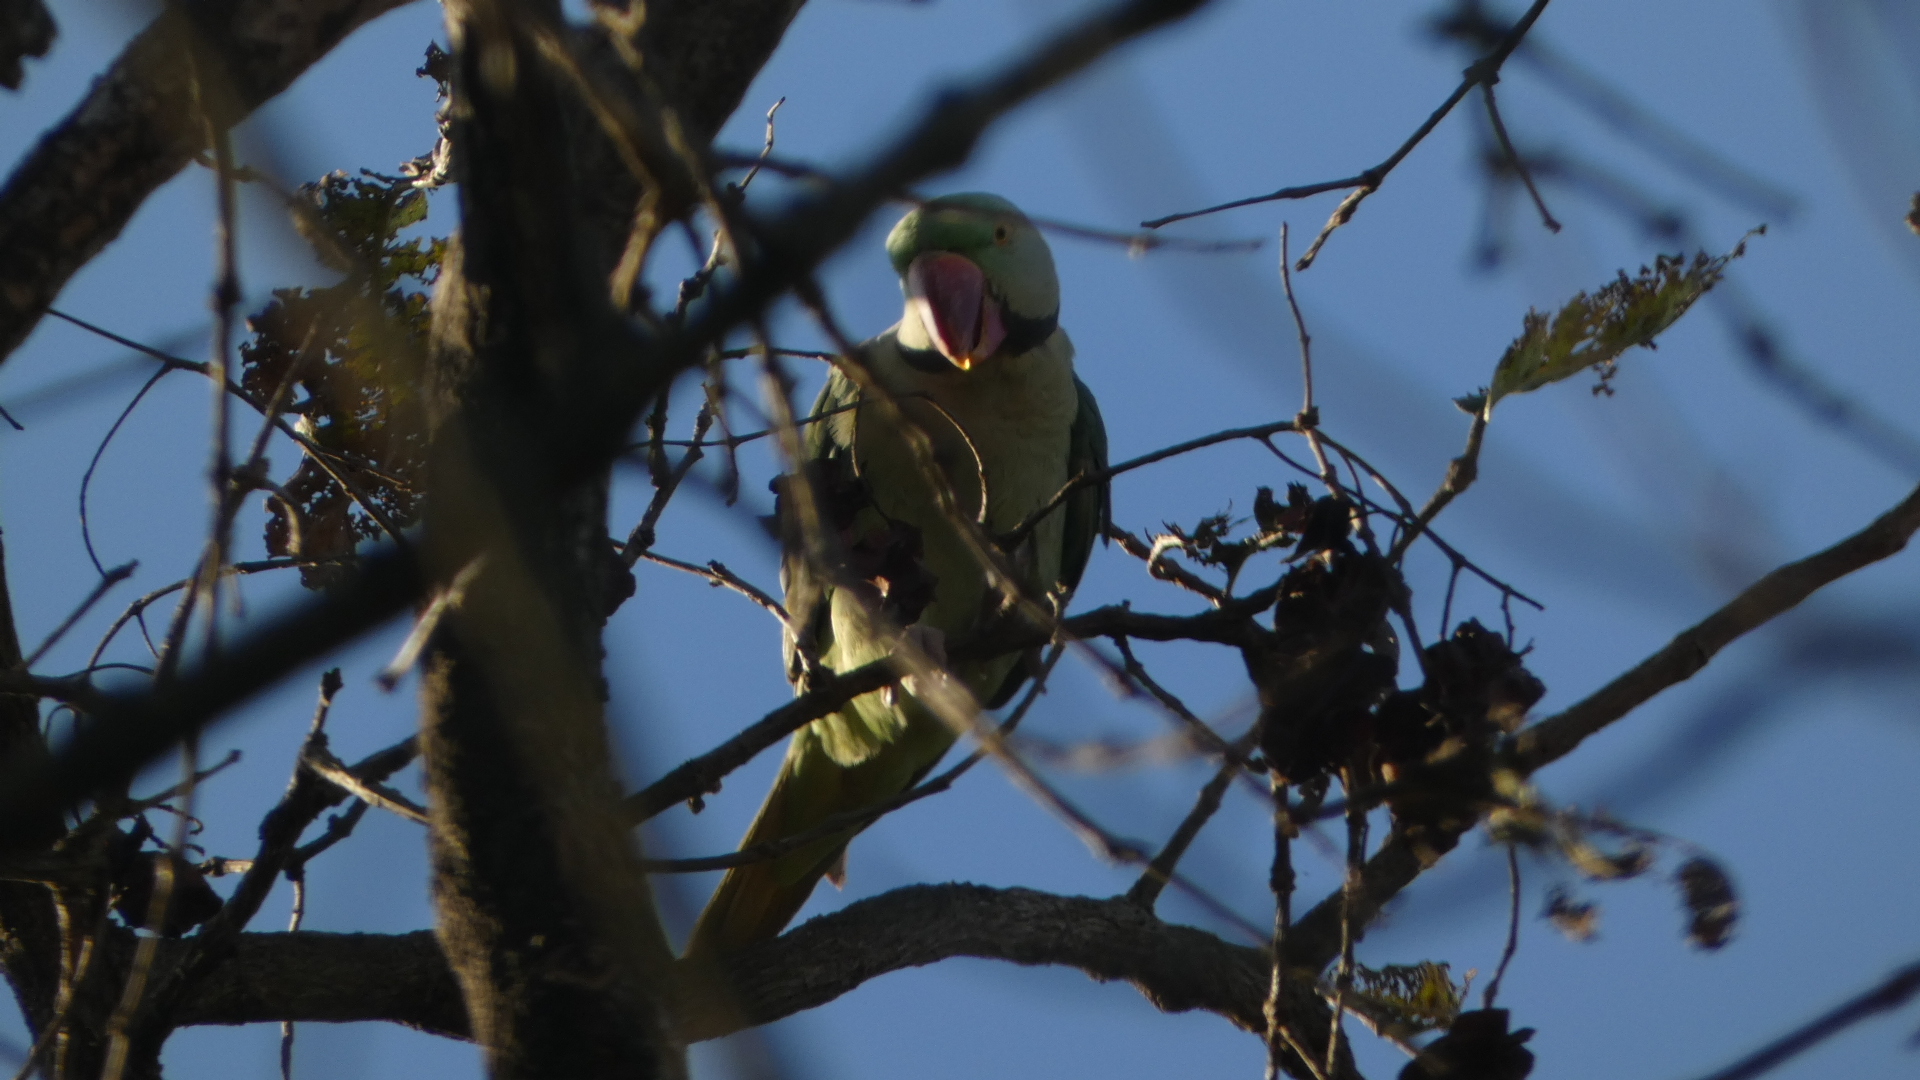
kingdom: Animalia
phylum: Chordata
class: Aves
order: Psittaciformes
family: Psittacidae
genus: Psittacula
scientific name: Psittacula eupatria
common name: Alexandrine parakeet
